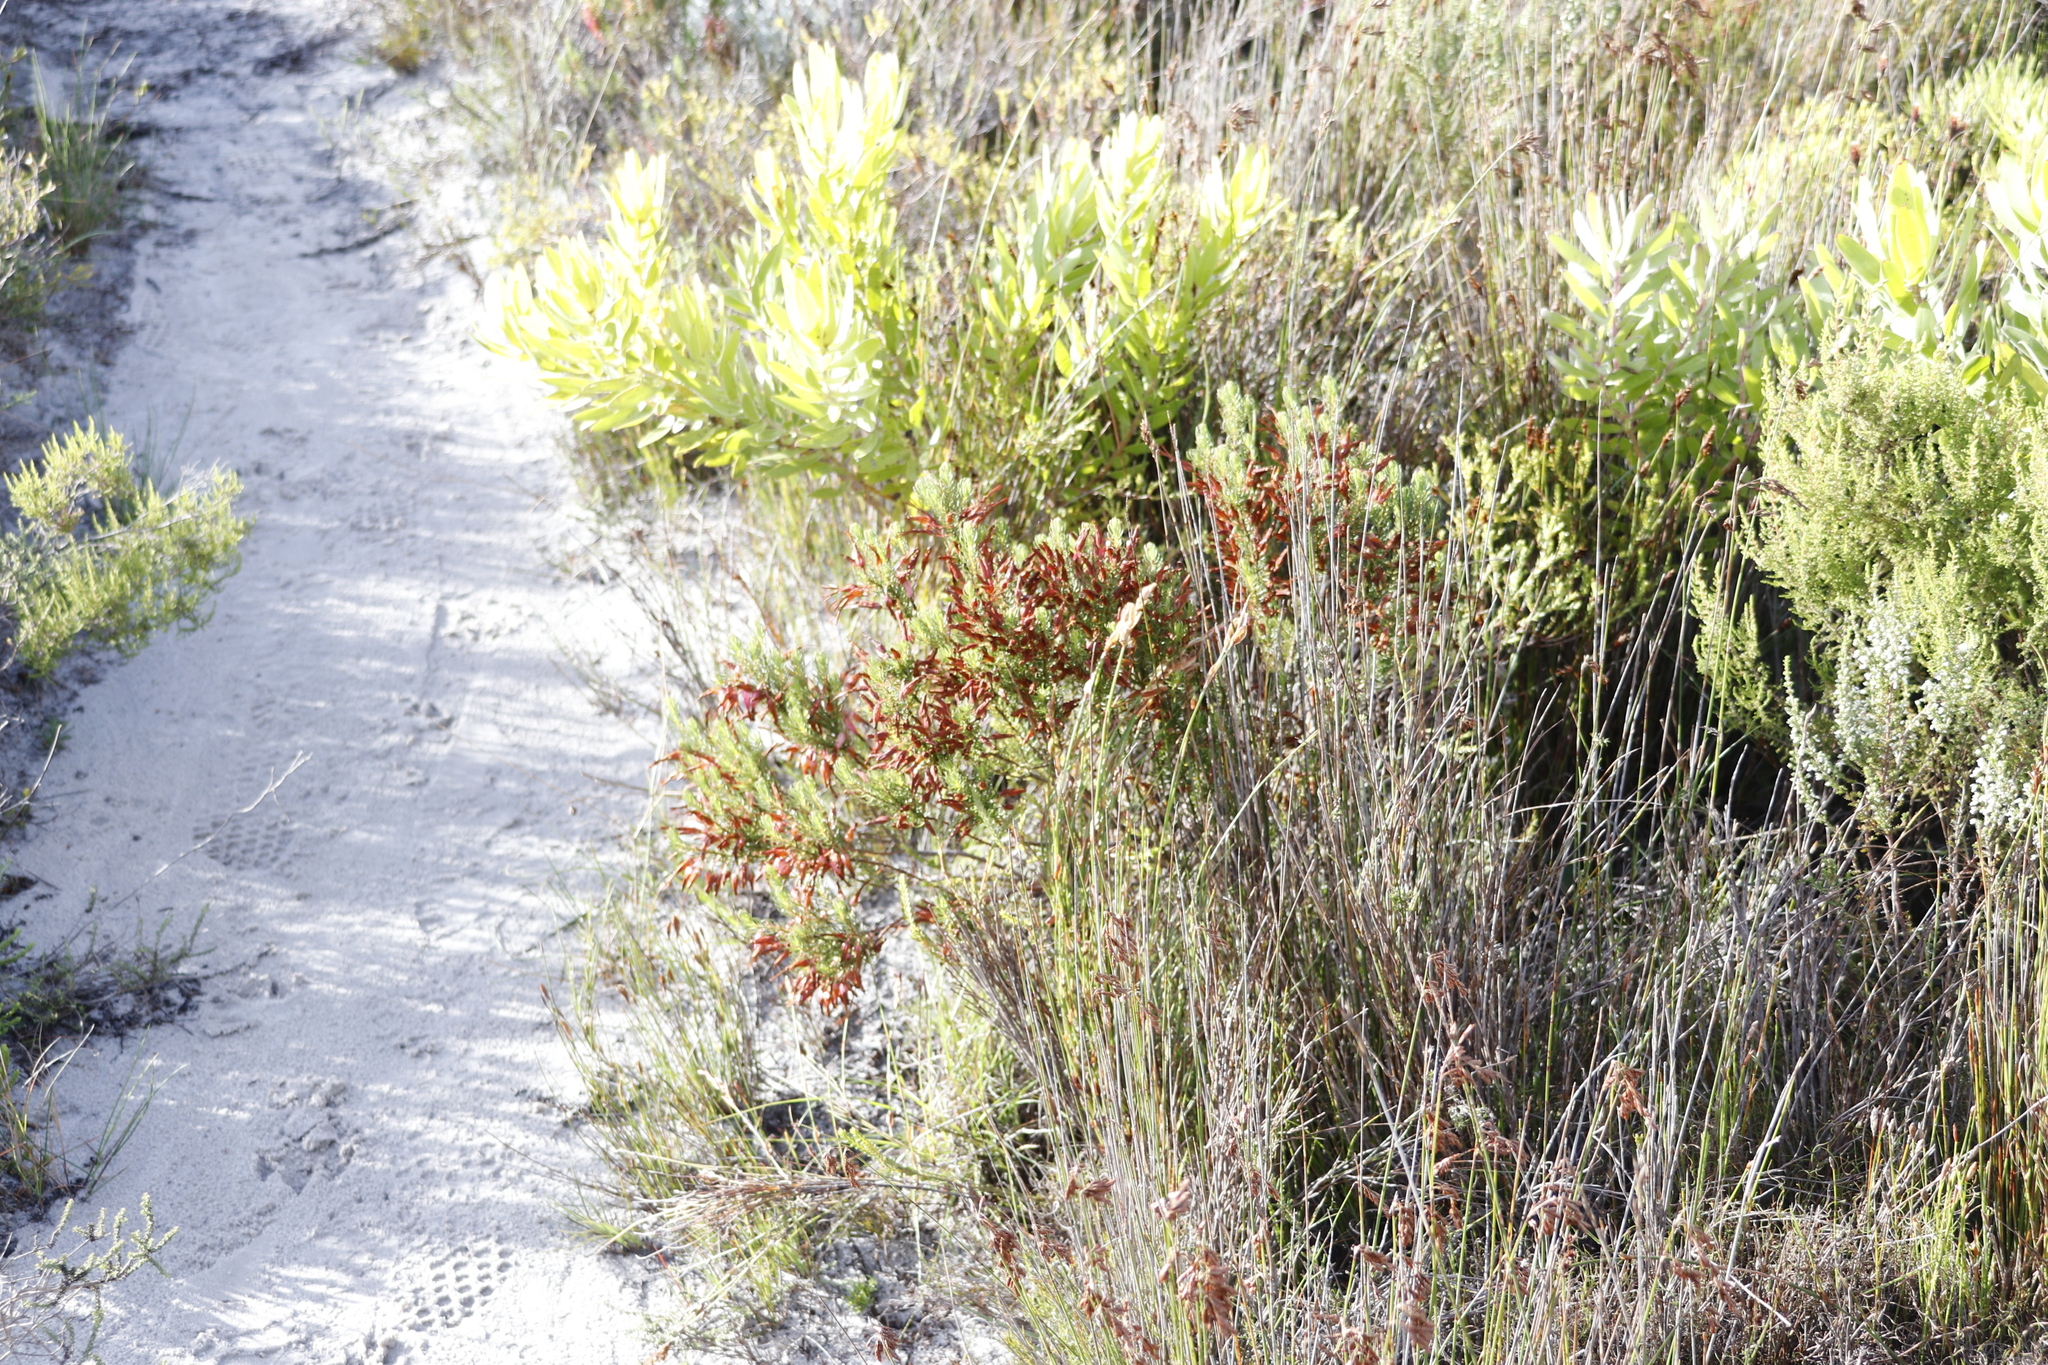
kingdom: Plantae
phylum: Tracheophyta
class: Magnoliopsida
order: Ericales
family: Ericaceae
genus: Erica
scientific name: Erica plukenetii
